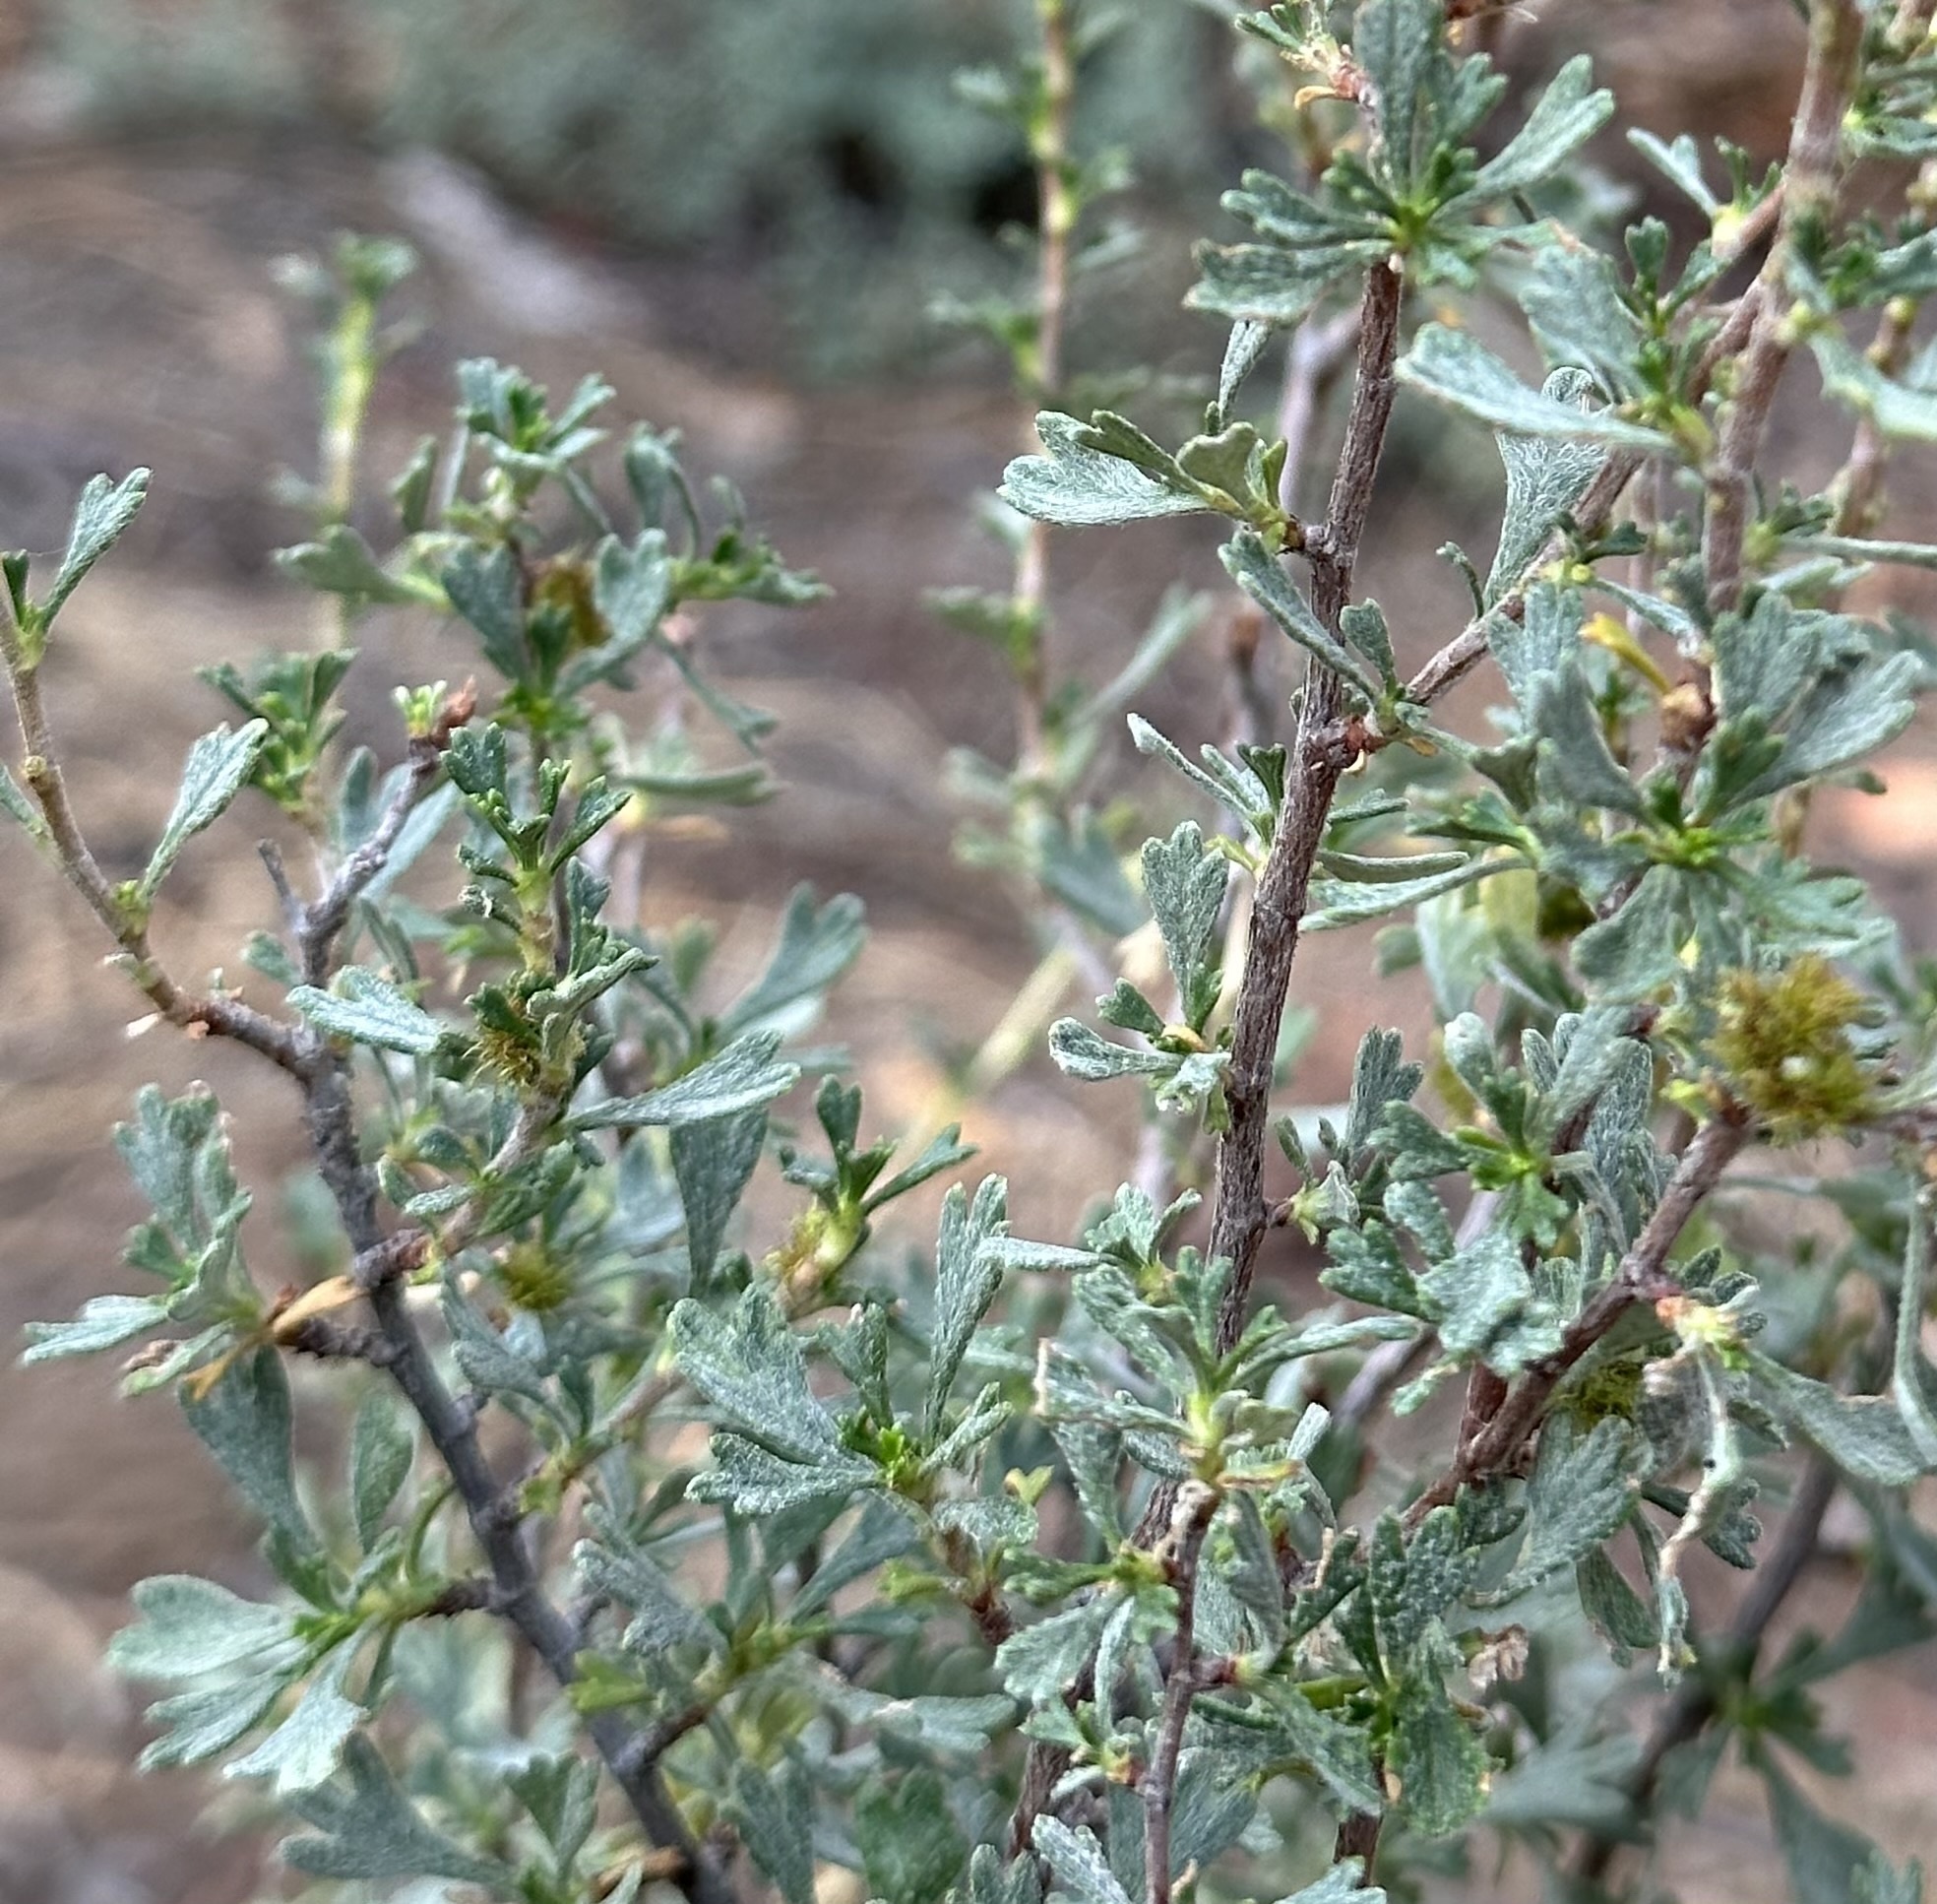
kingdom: Plantae
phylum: Tracheophyta
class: Magnoliopsida
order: Rosales
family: Rosaceae
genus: Purshia
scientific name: Purshia tridentata
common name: Antelope bitterbrush
